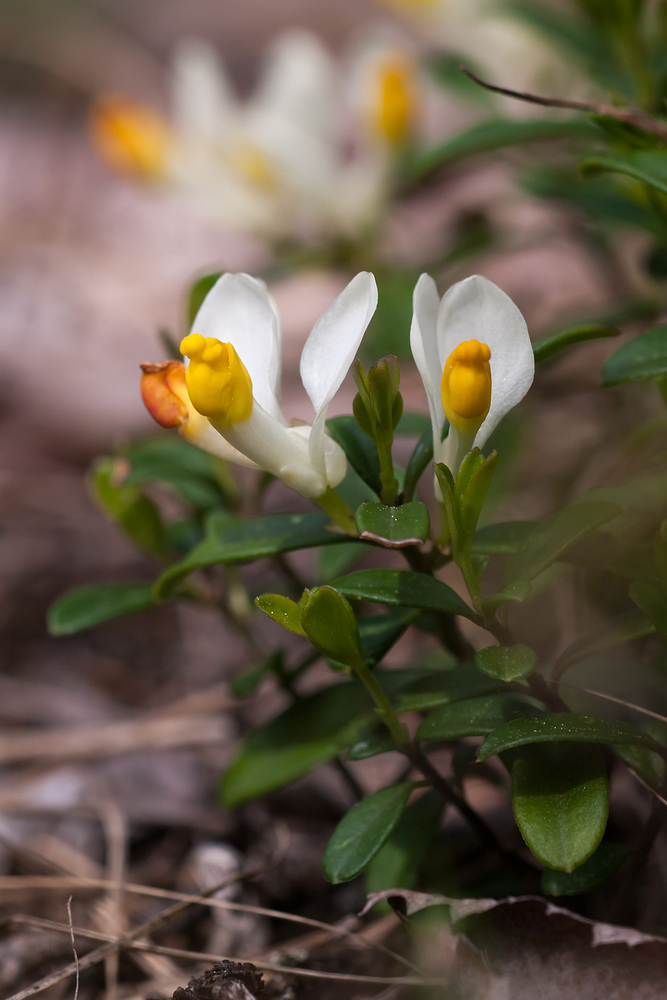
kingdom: Plantae
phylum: Tracheophyta
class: Magnoliopsida
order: Fabales
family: Polygalaceae
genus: Polygaloides
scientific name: Polygaloides chamaebuxus
